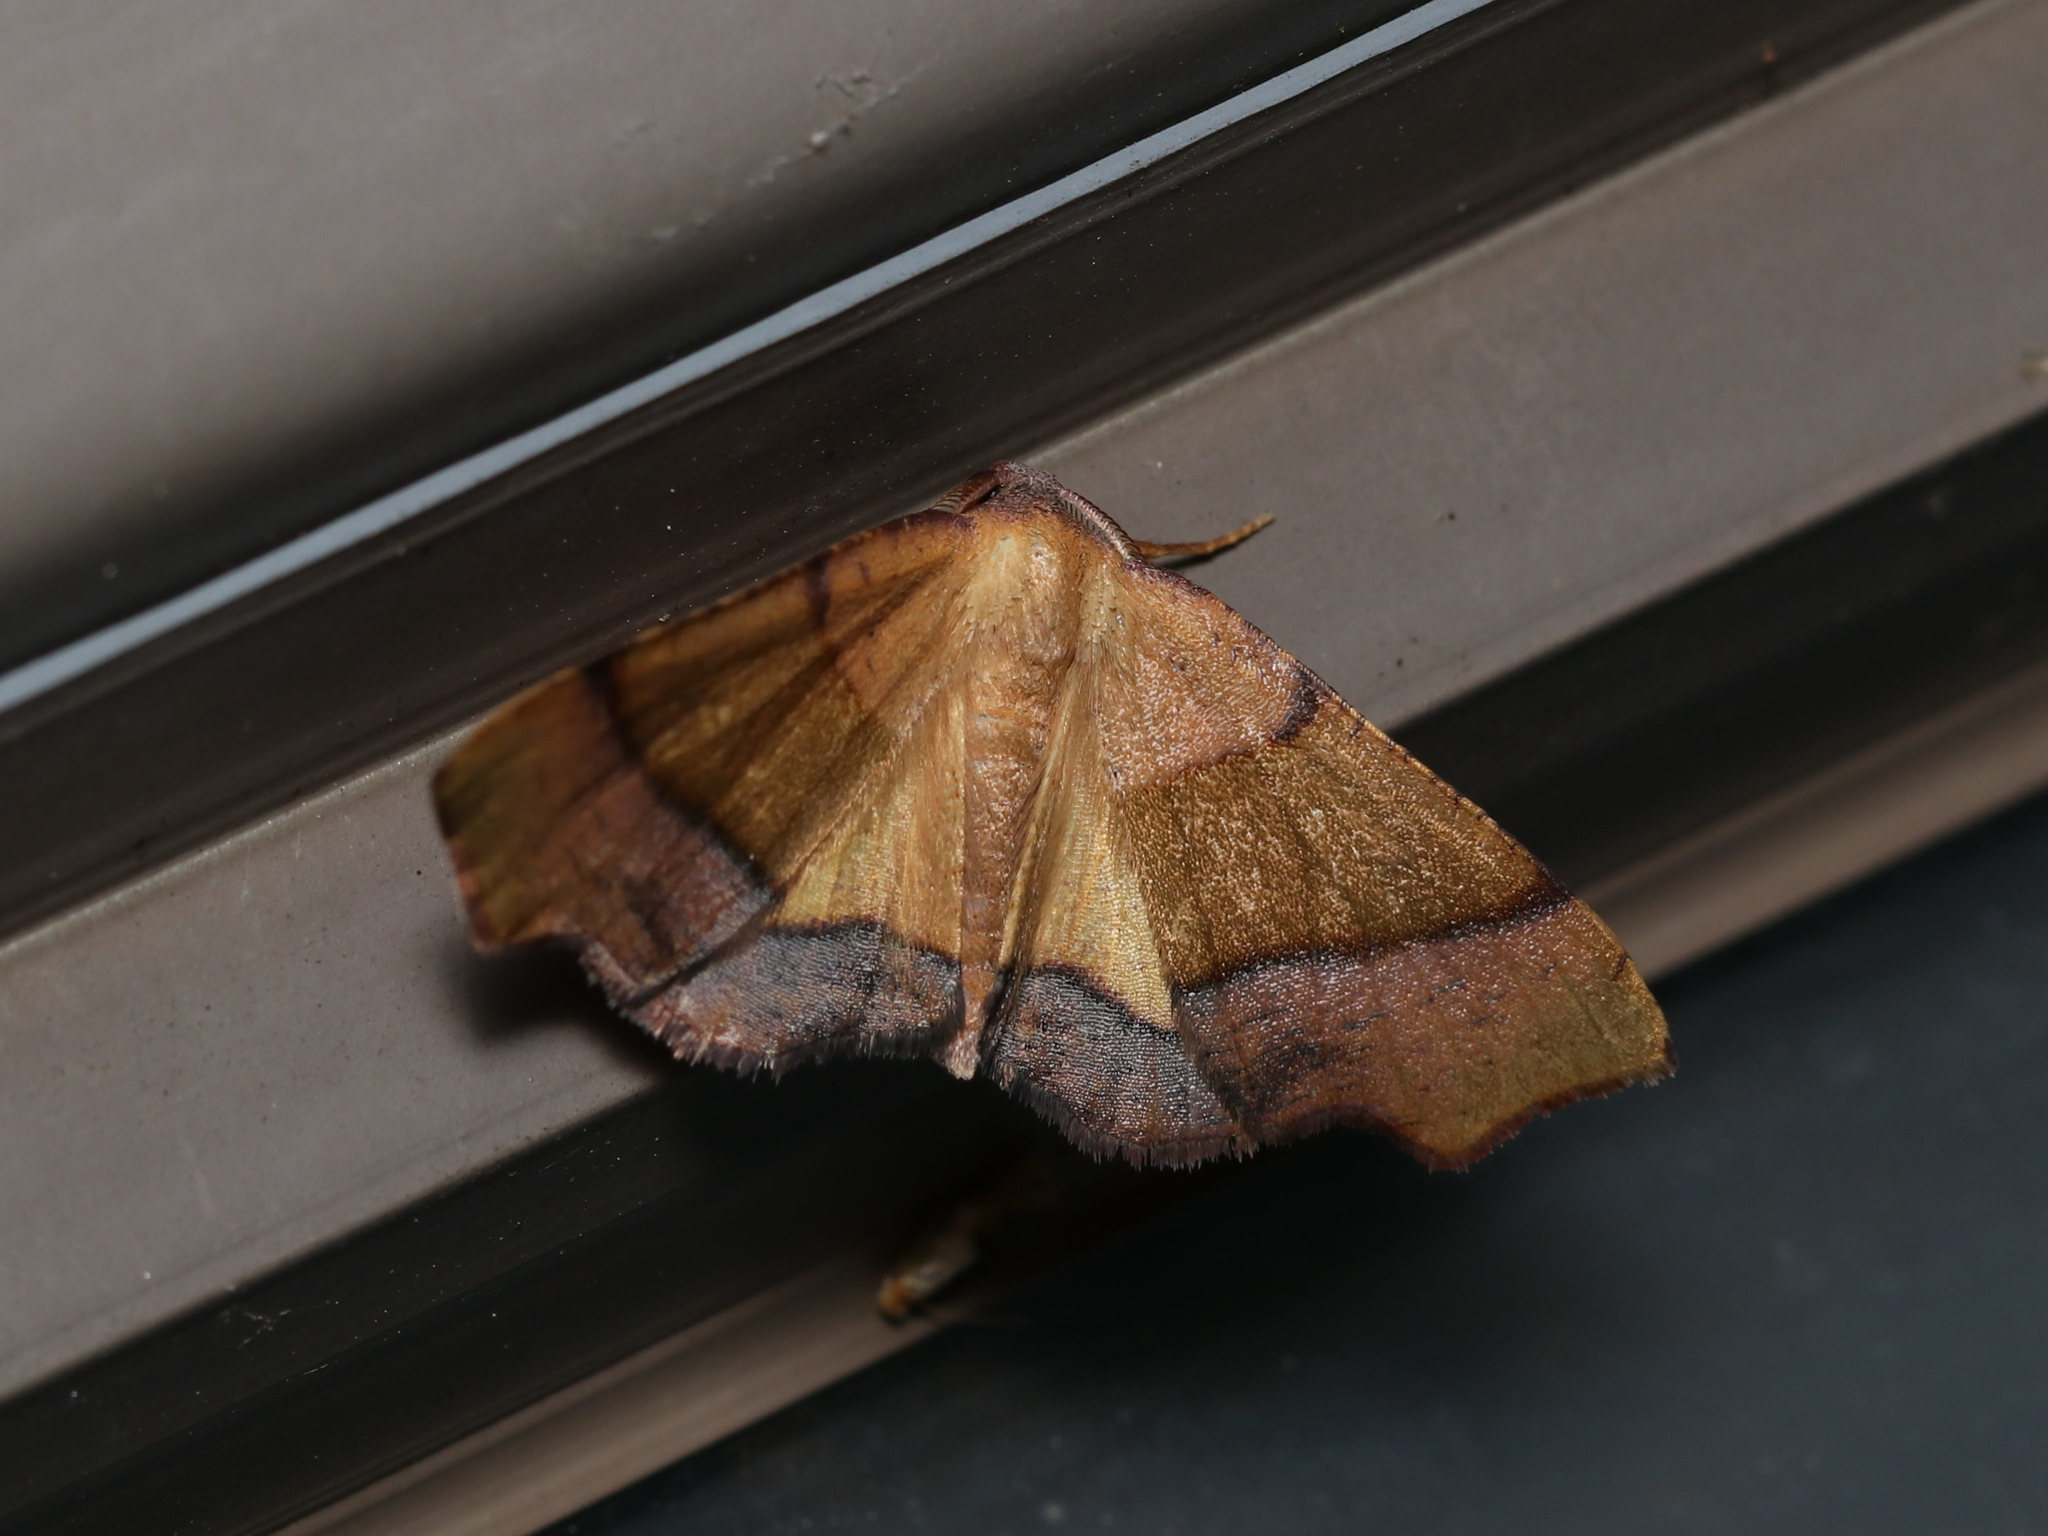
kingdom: Animalia
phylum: Arthropoda
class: Insecta
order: Lepidoptera
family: Geometridae
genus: Plagodis
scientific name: Plagodis phlogosaria
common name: Straight-lined plagodis
